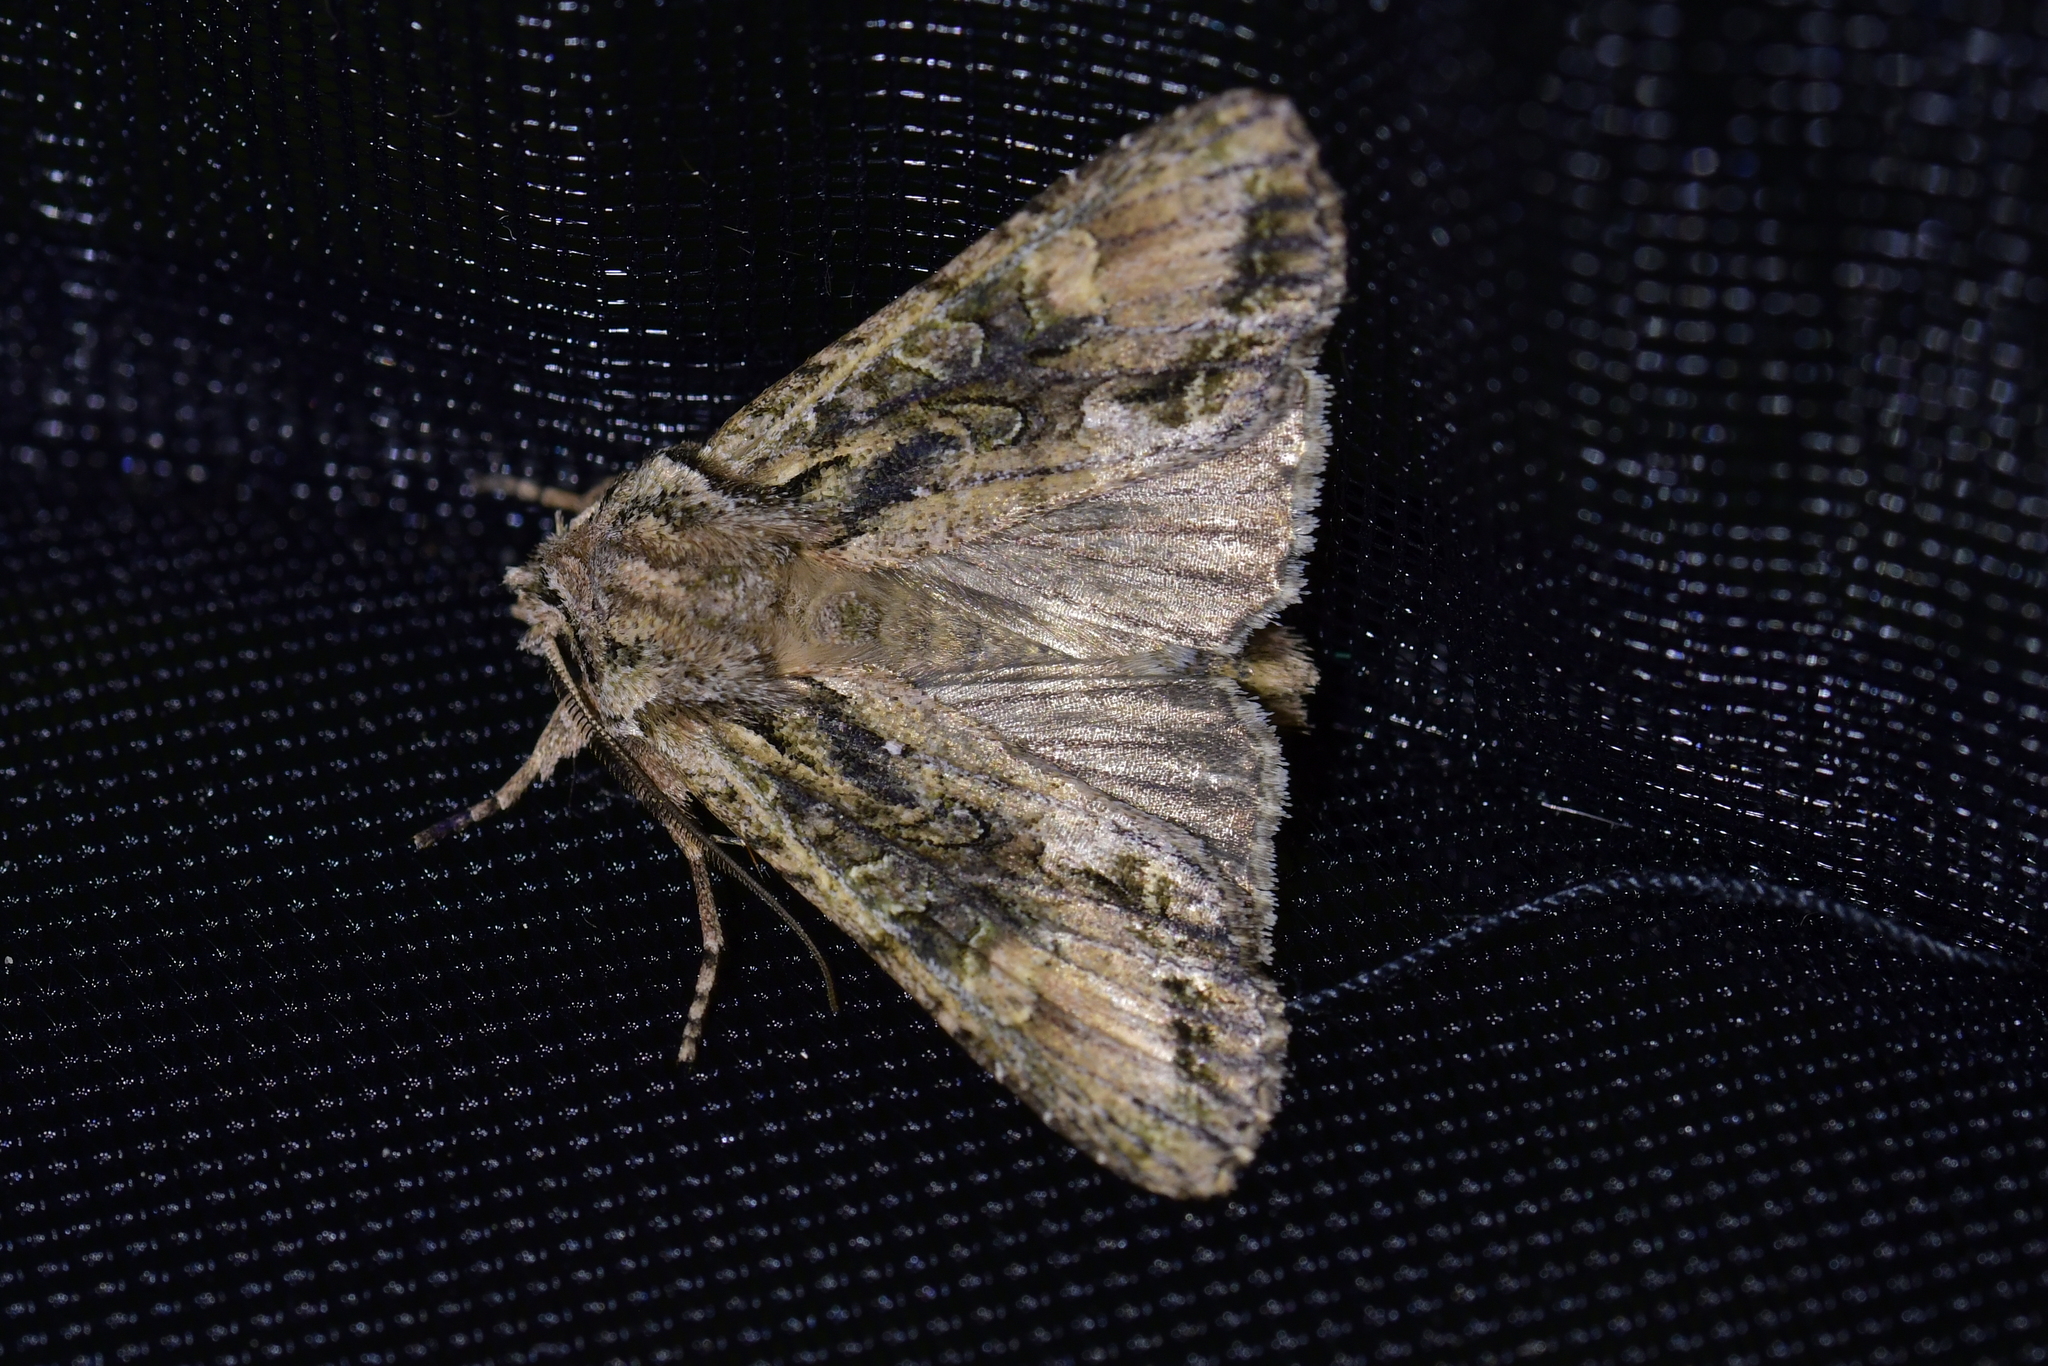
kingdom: Animalia
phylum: Arthropoda
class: Insecta
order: Lepidoptera
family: Noctuidae
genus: Ichneutica
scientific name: Ichneutica mutans
